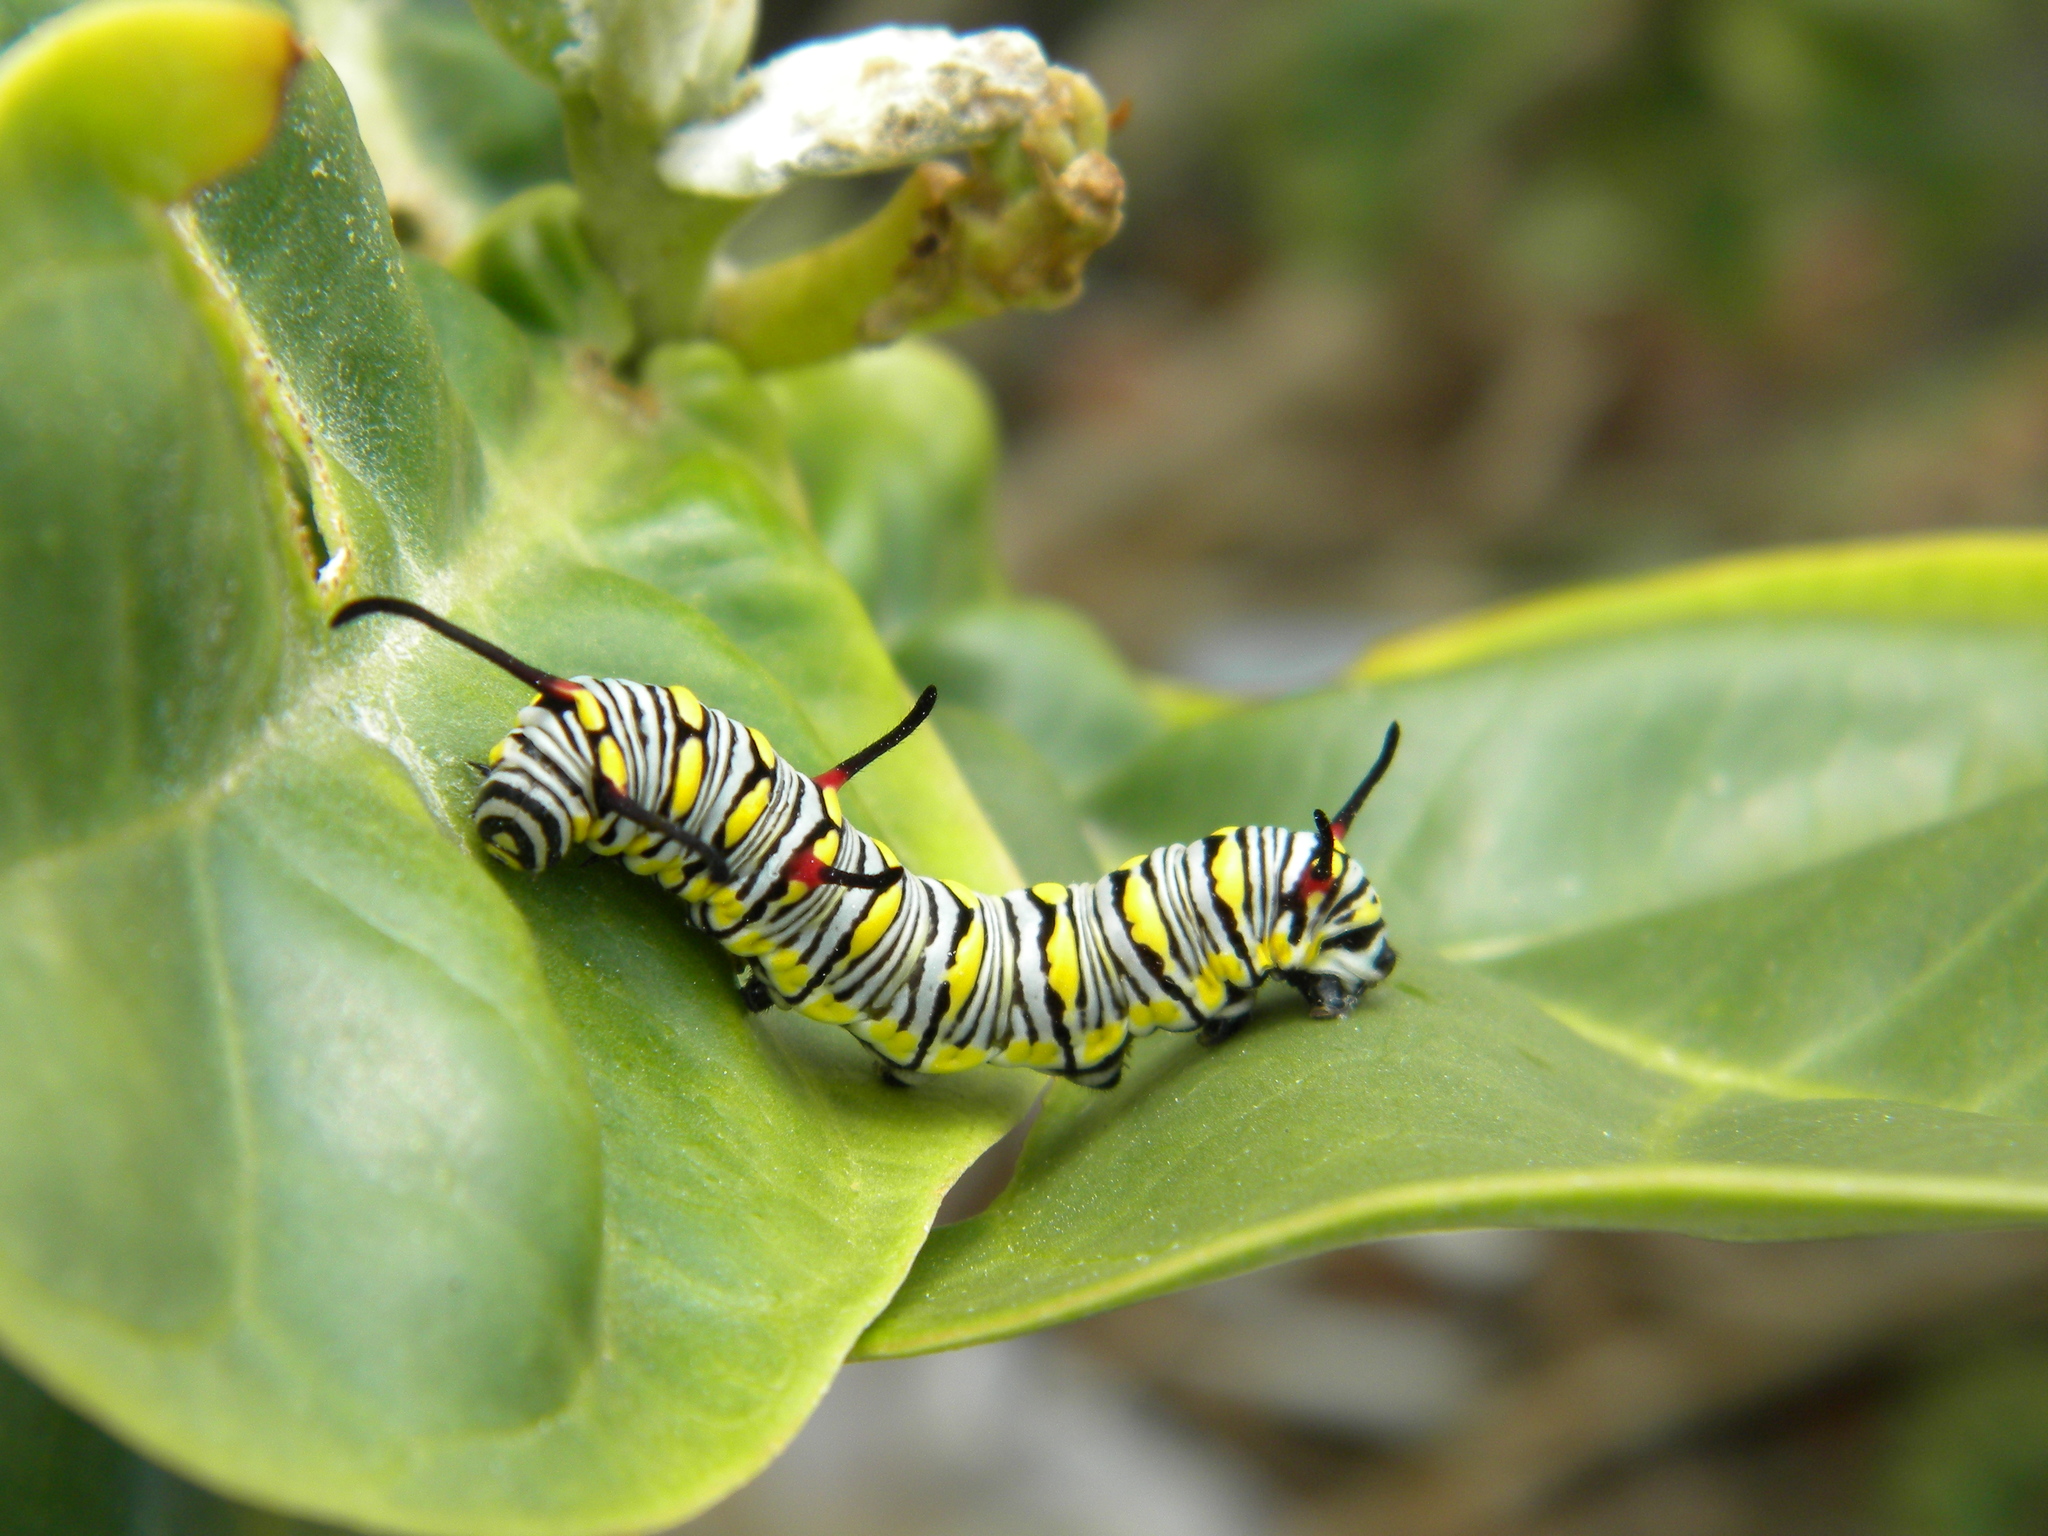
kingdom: Animalia
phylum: Arthropoda
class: Insecta
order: Lepidoptera
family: Nymphalidae
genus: Danaus
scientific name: Danaus chrysippus
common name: Plain tiger
